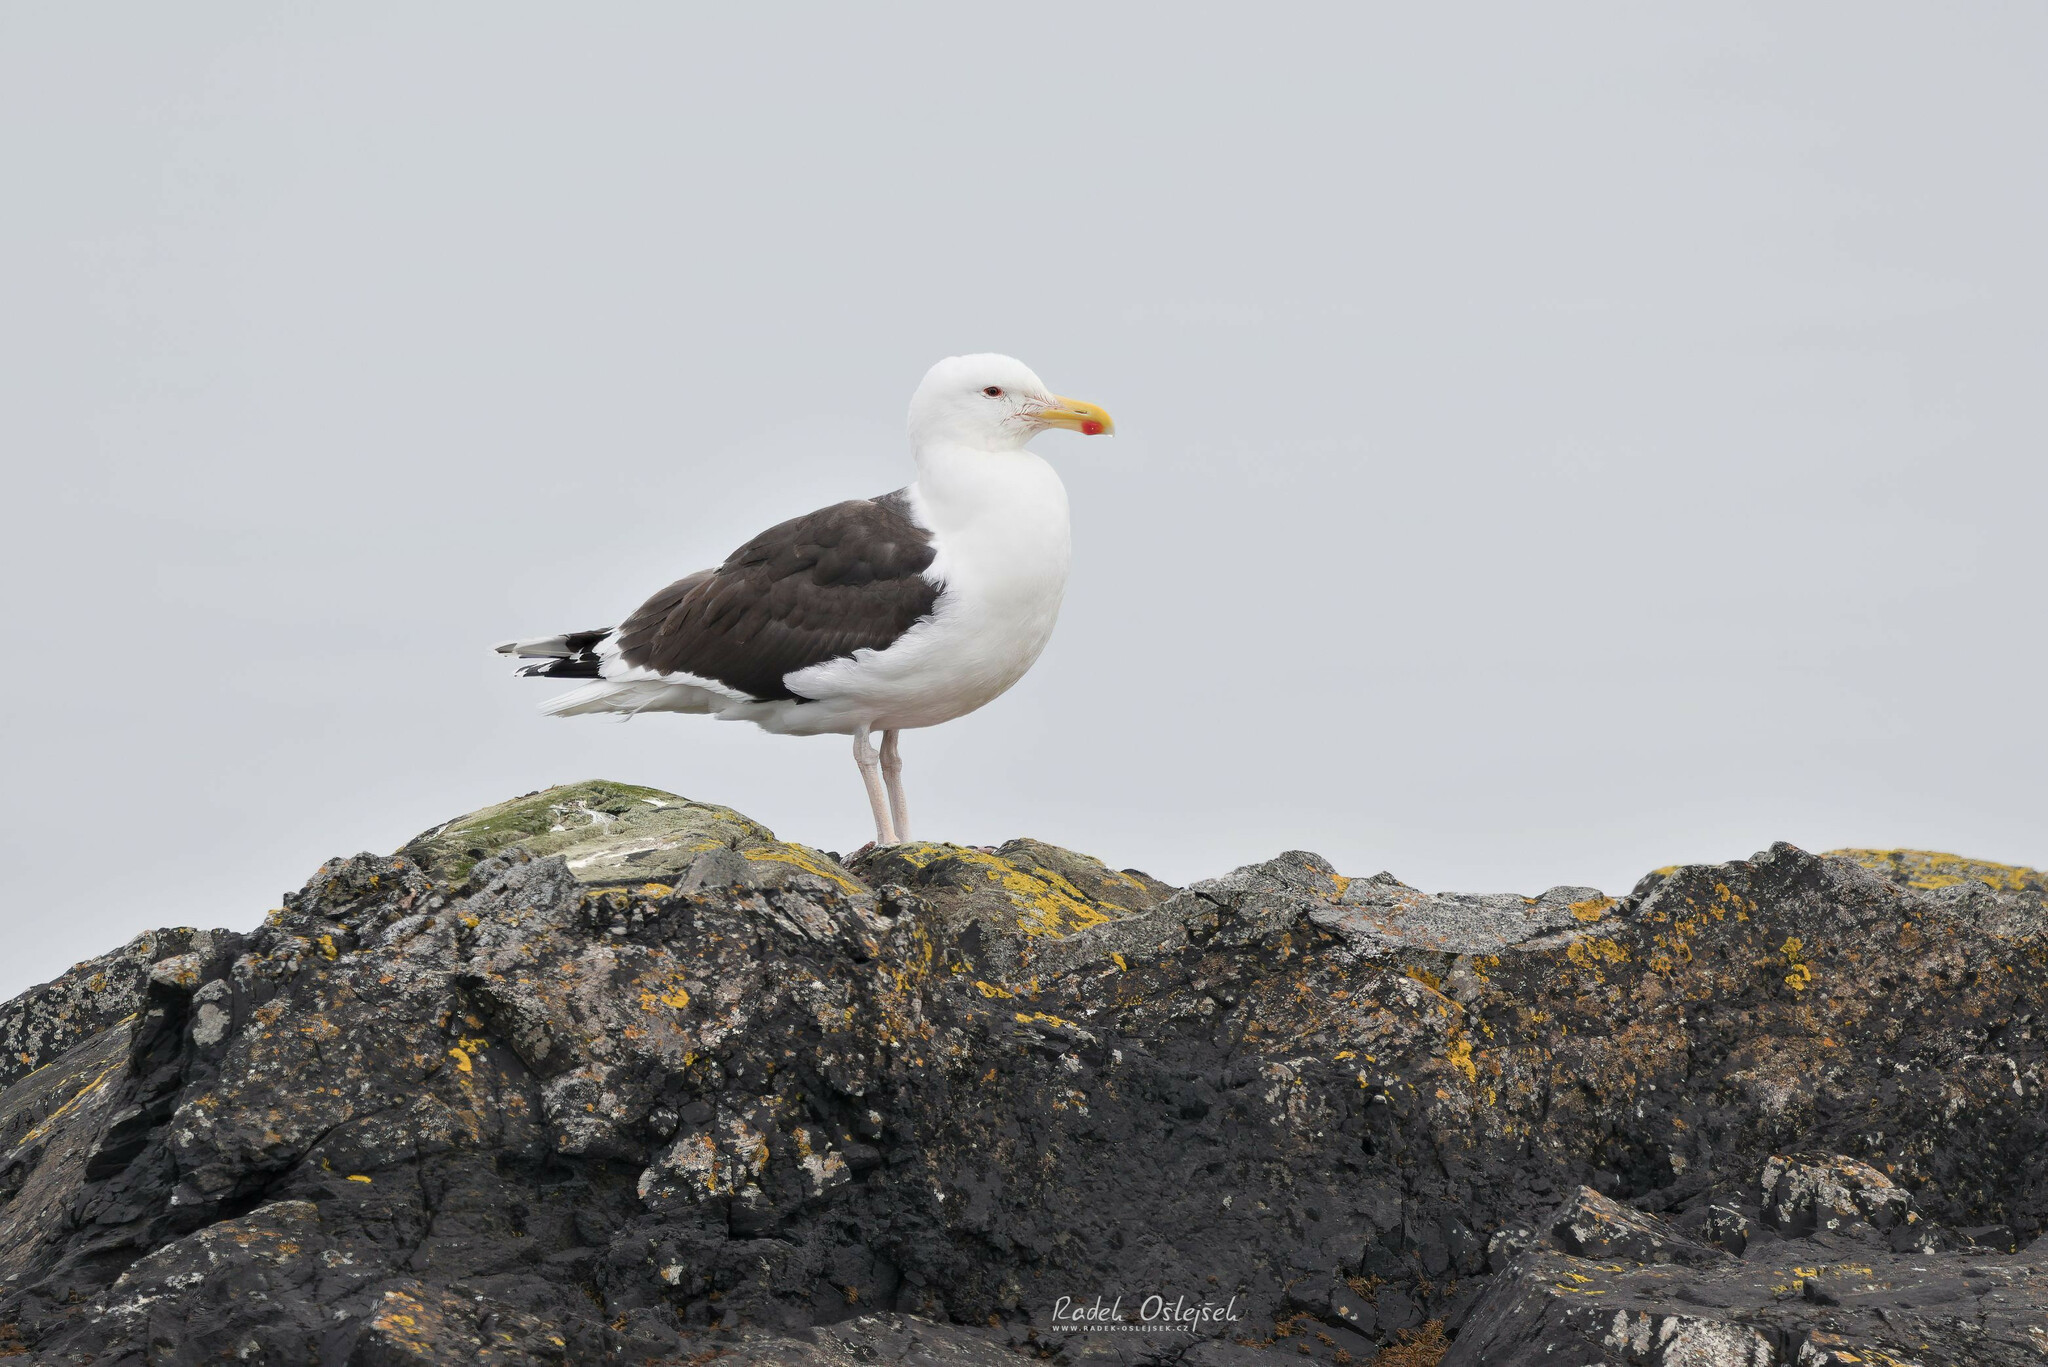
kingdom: Animalia
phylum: Chordata
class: Aves
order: Charadriiformes
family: Laridae
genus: Larus
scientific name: Larus marinus
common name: Great black-backed gull
